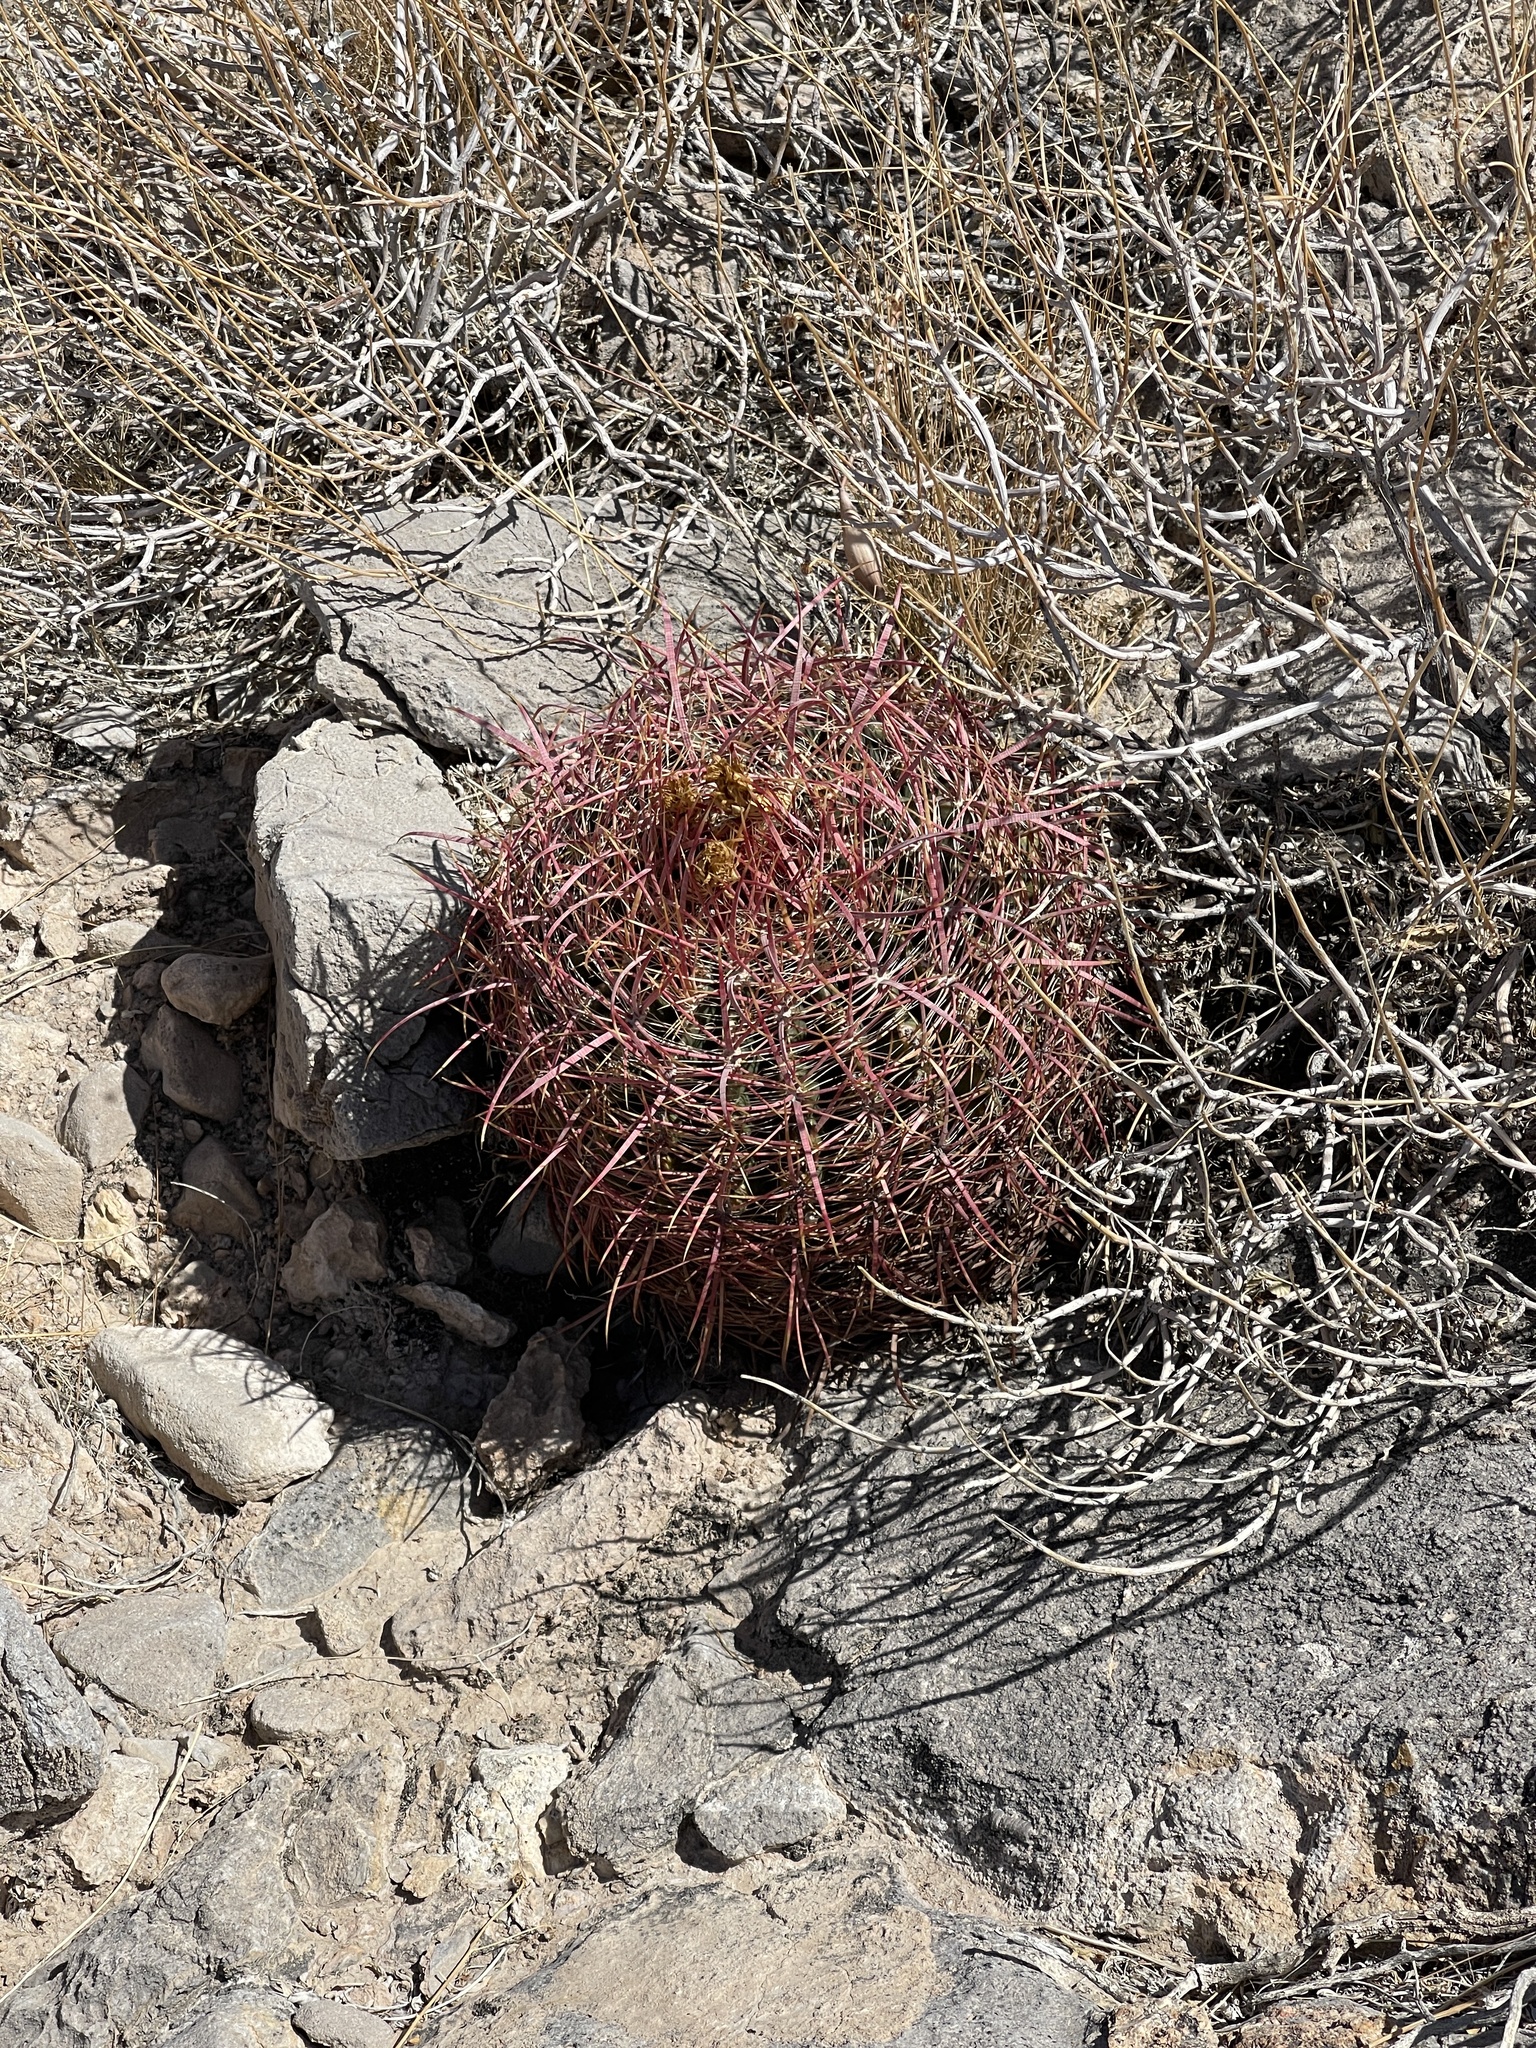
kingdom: Plantae
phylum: Tracheophyta
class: Magnoliopsida
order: Caryophyllales
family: Cactaceae
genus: Ferocactus
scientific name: Ferocactus cylindraceus
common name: California barrel cactus
